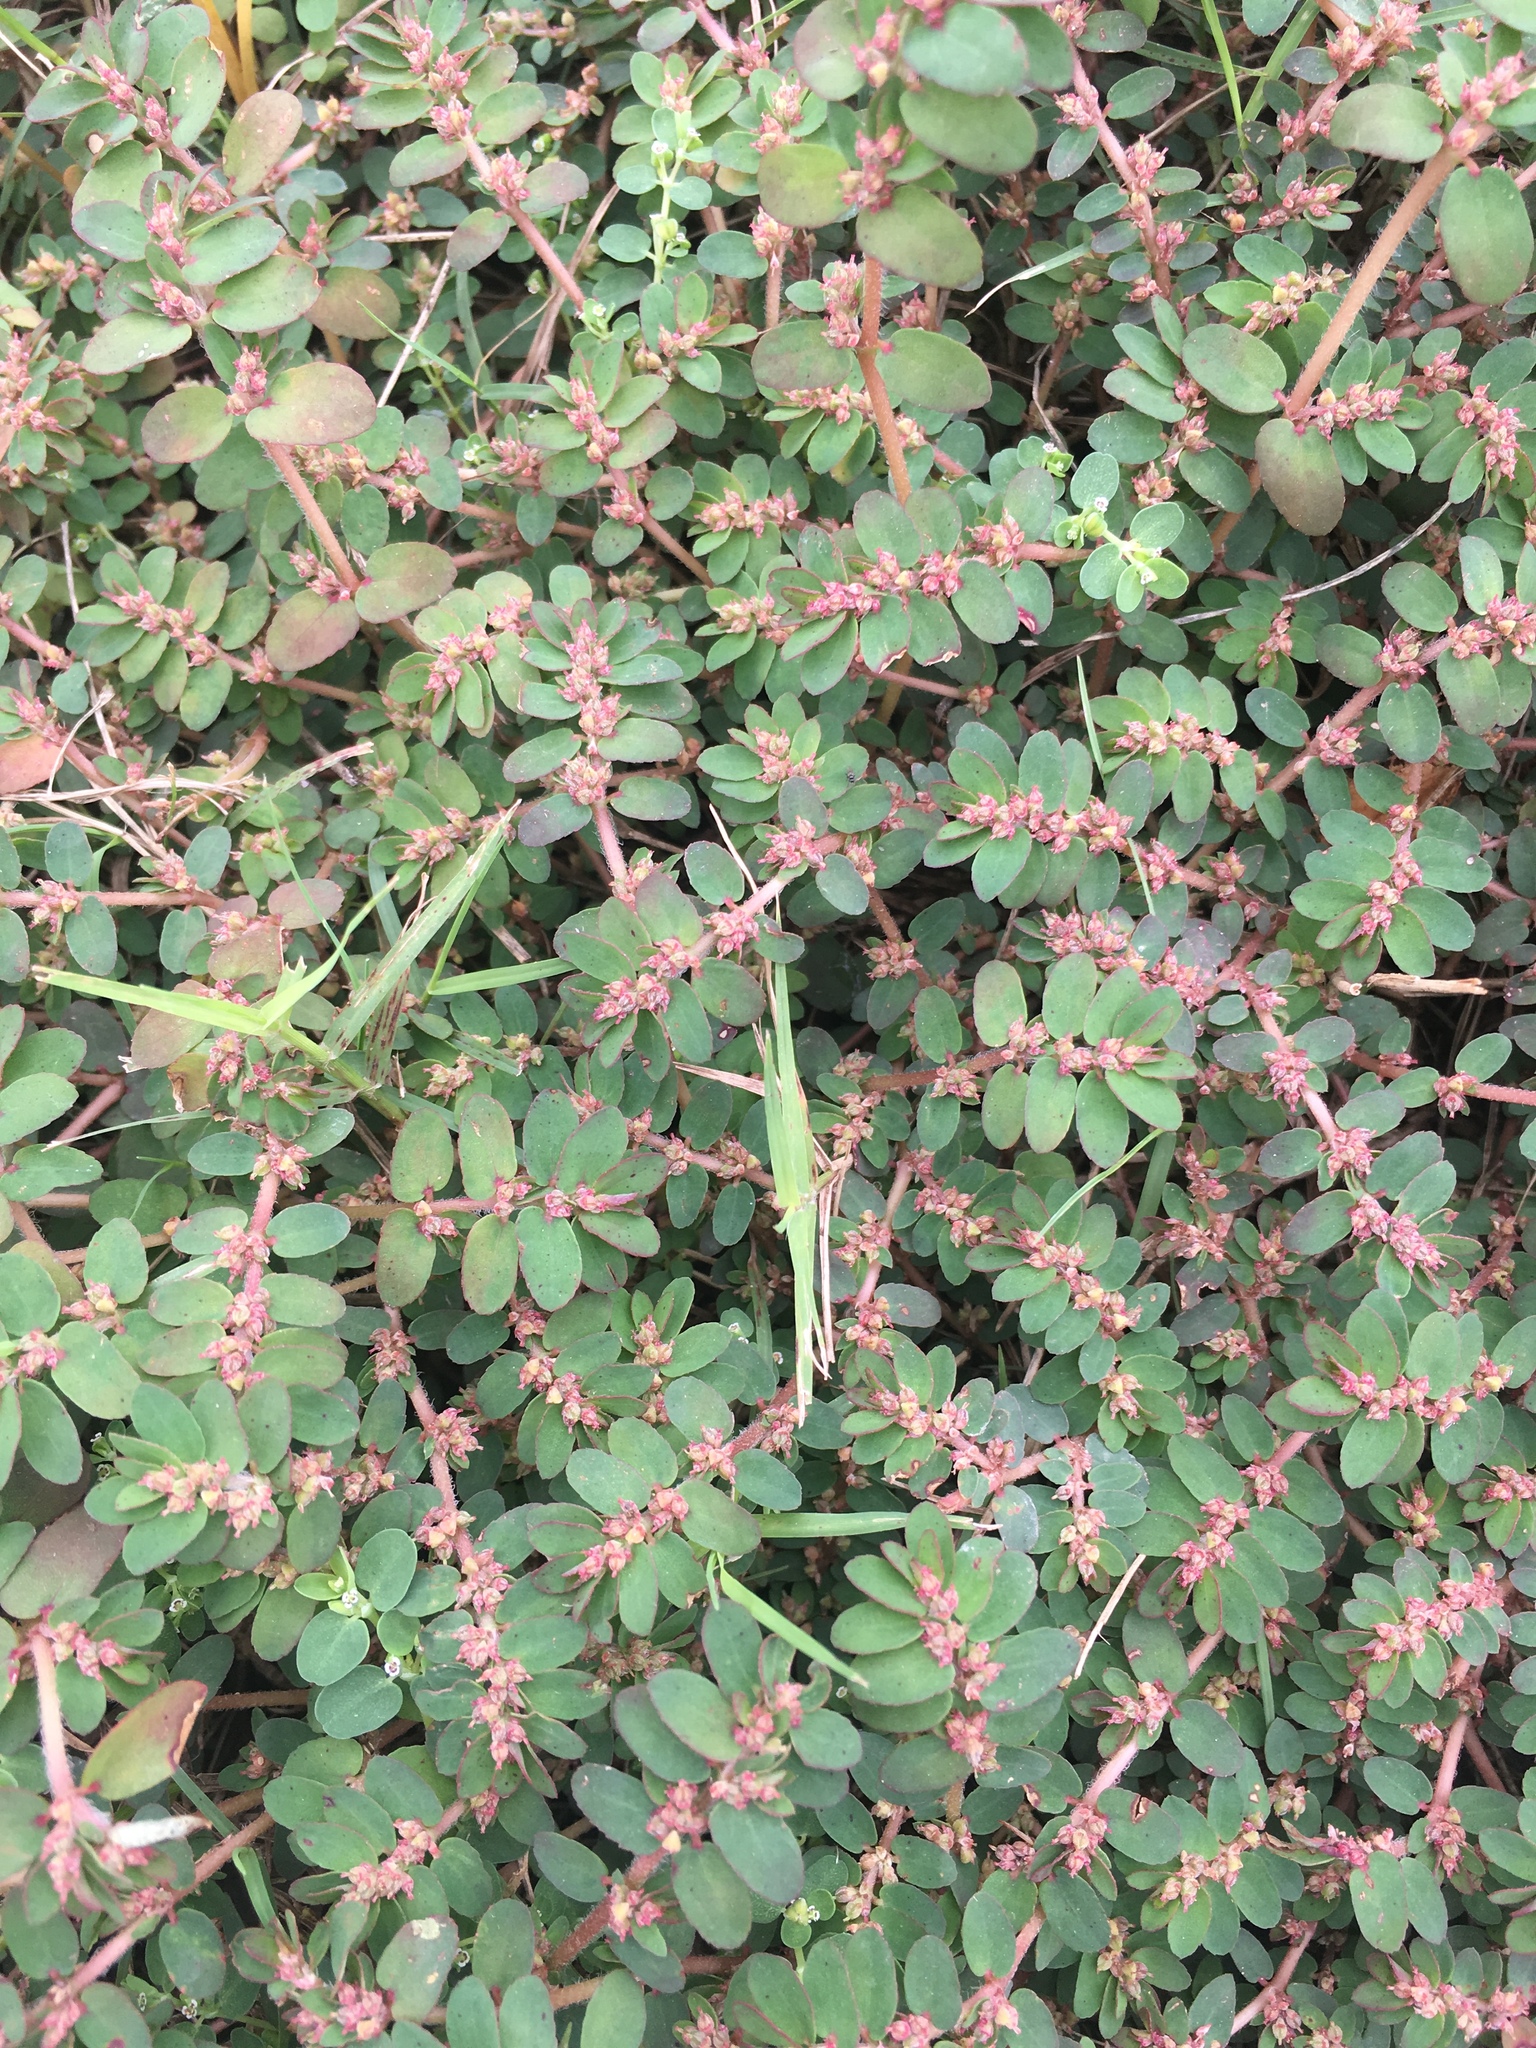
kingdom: Plantae
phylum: Tracheophyta
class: Magnoliopsida
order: Malpighiales
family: Euphorbiaceae
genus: Euphorbia
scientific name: Euphorbia thymifolia
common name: Gulf sandmat
